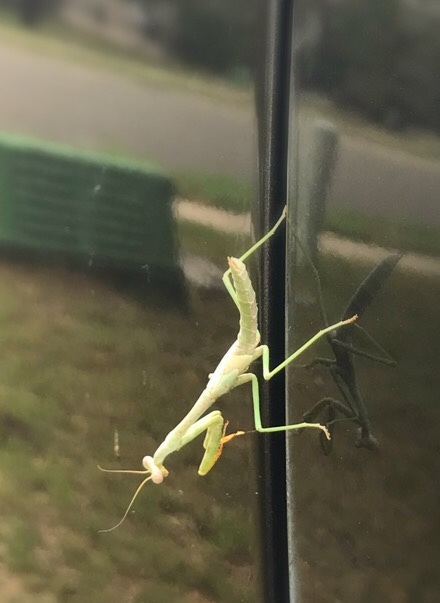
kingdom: Animalia
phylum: Arthropoda
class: Insecta
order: Mantodea
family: Mantidae
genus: Stagmomantis
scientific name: Stagmomantis carolina
